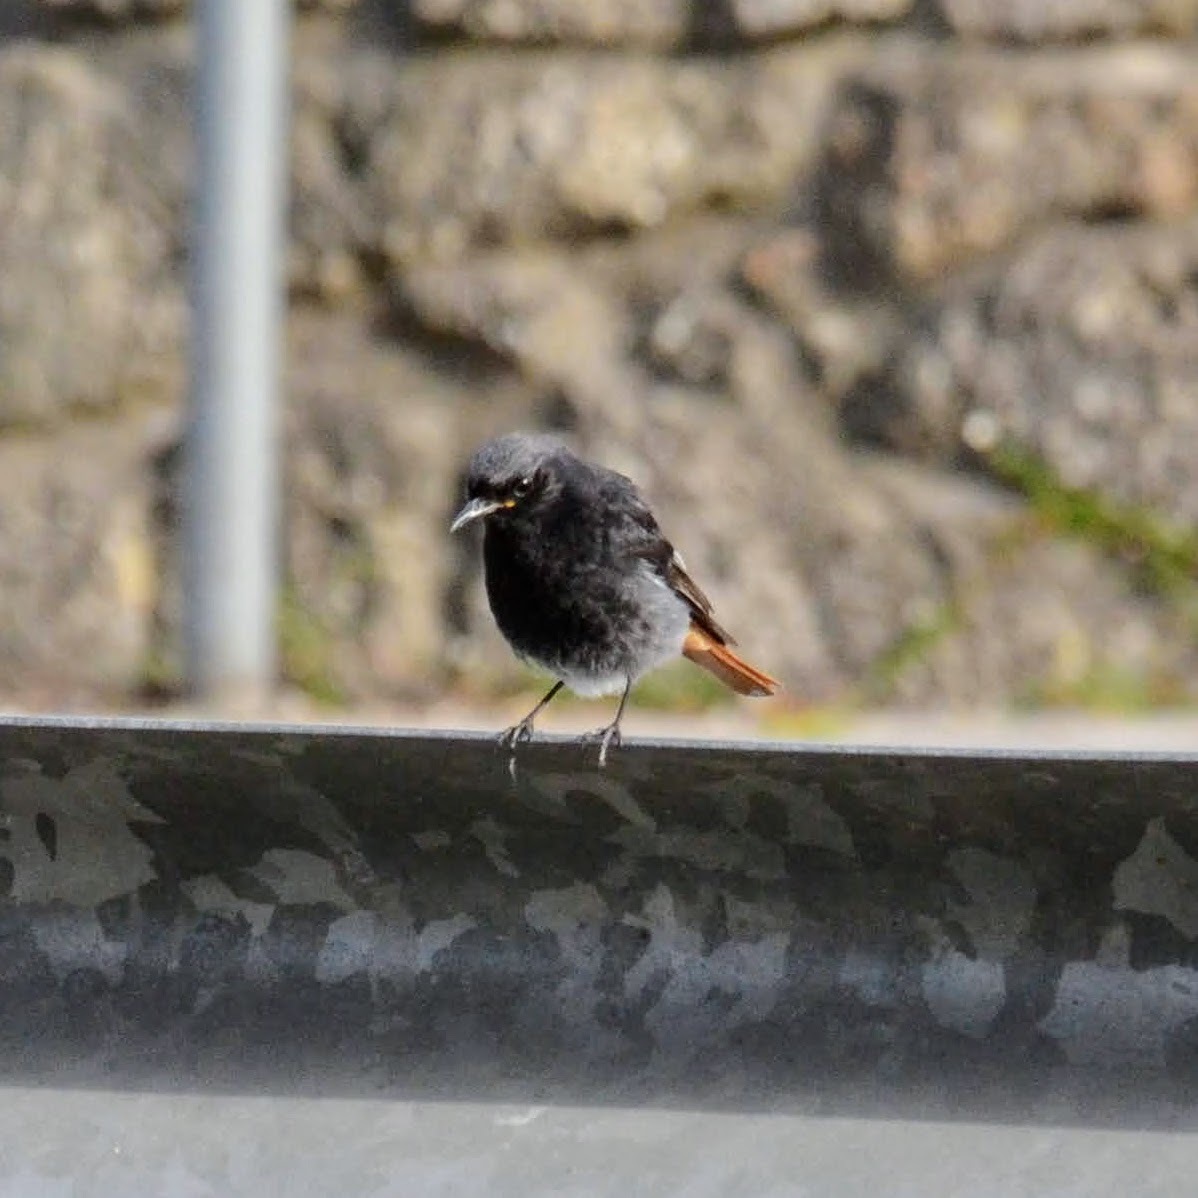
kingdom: Animalia
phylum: Chordata
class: Aves
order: Passeriformes
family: Muscicapidae
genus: Phoenicurus
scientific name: Phoenicurus ochruros
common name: Black redstart
